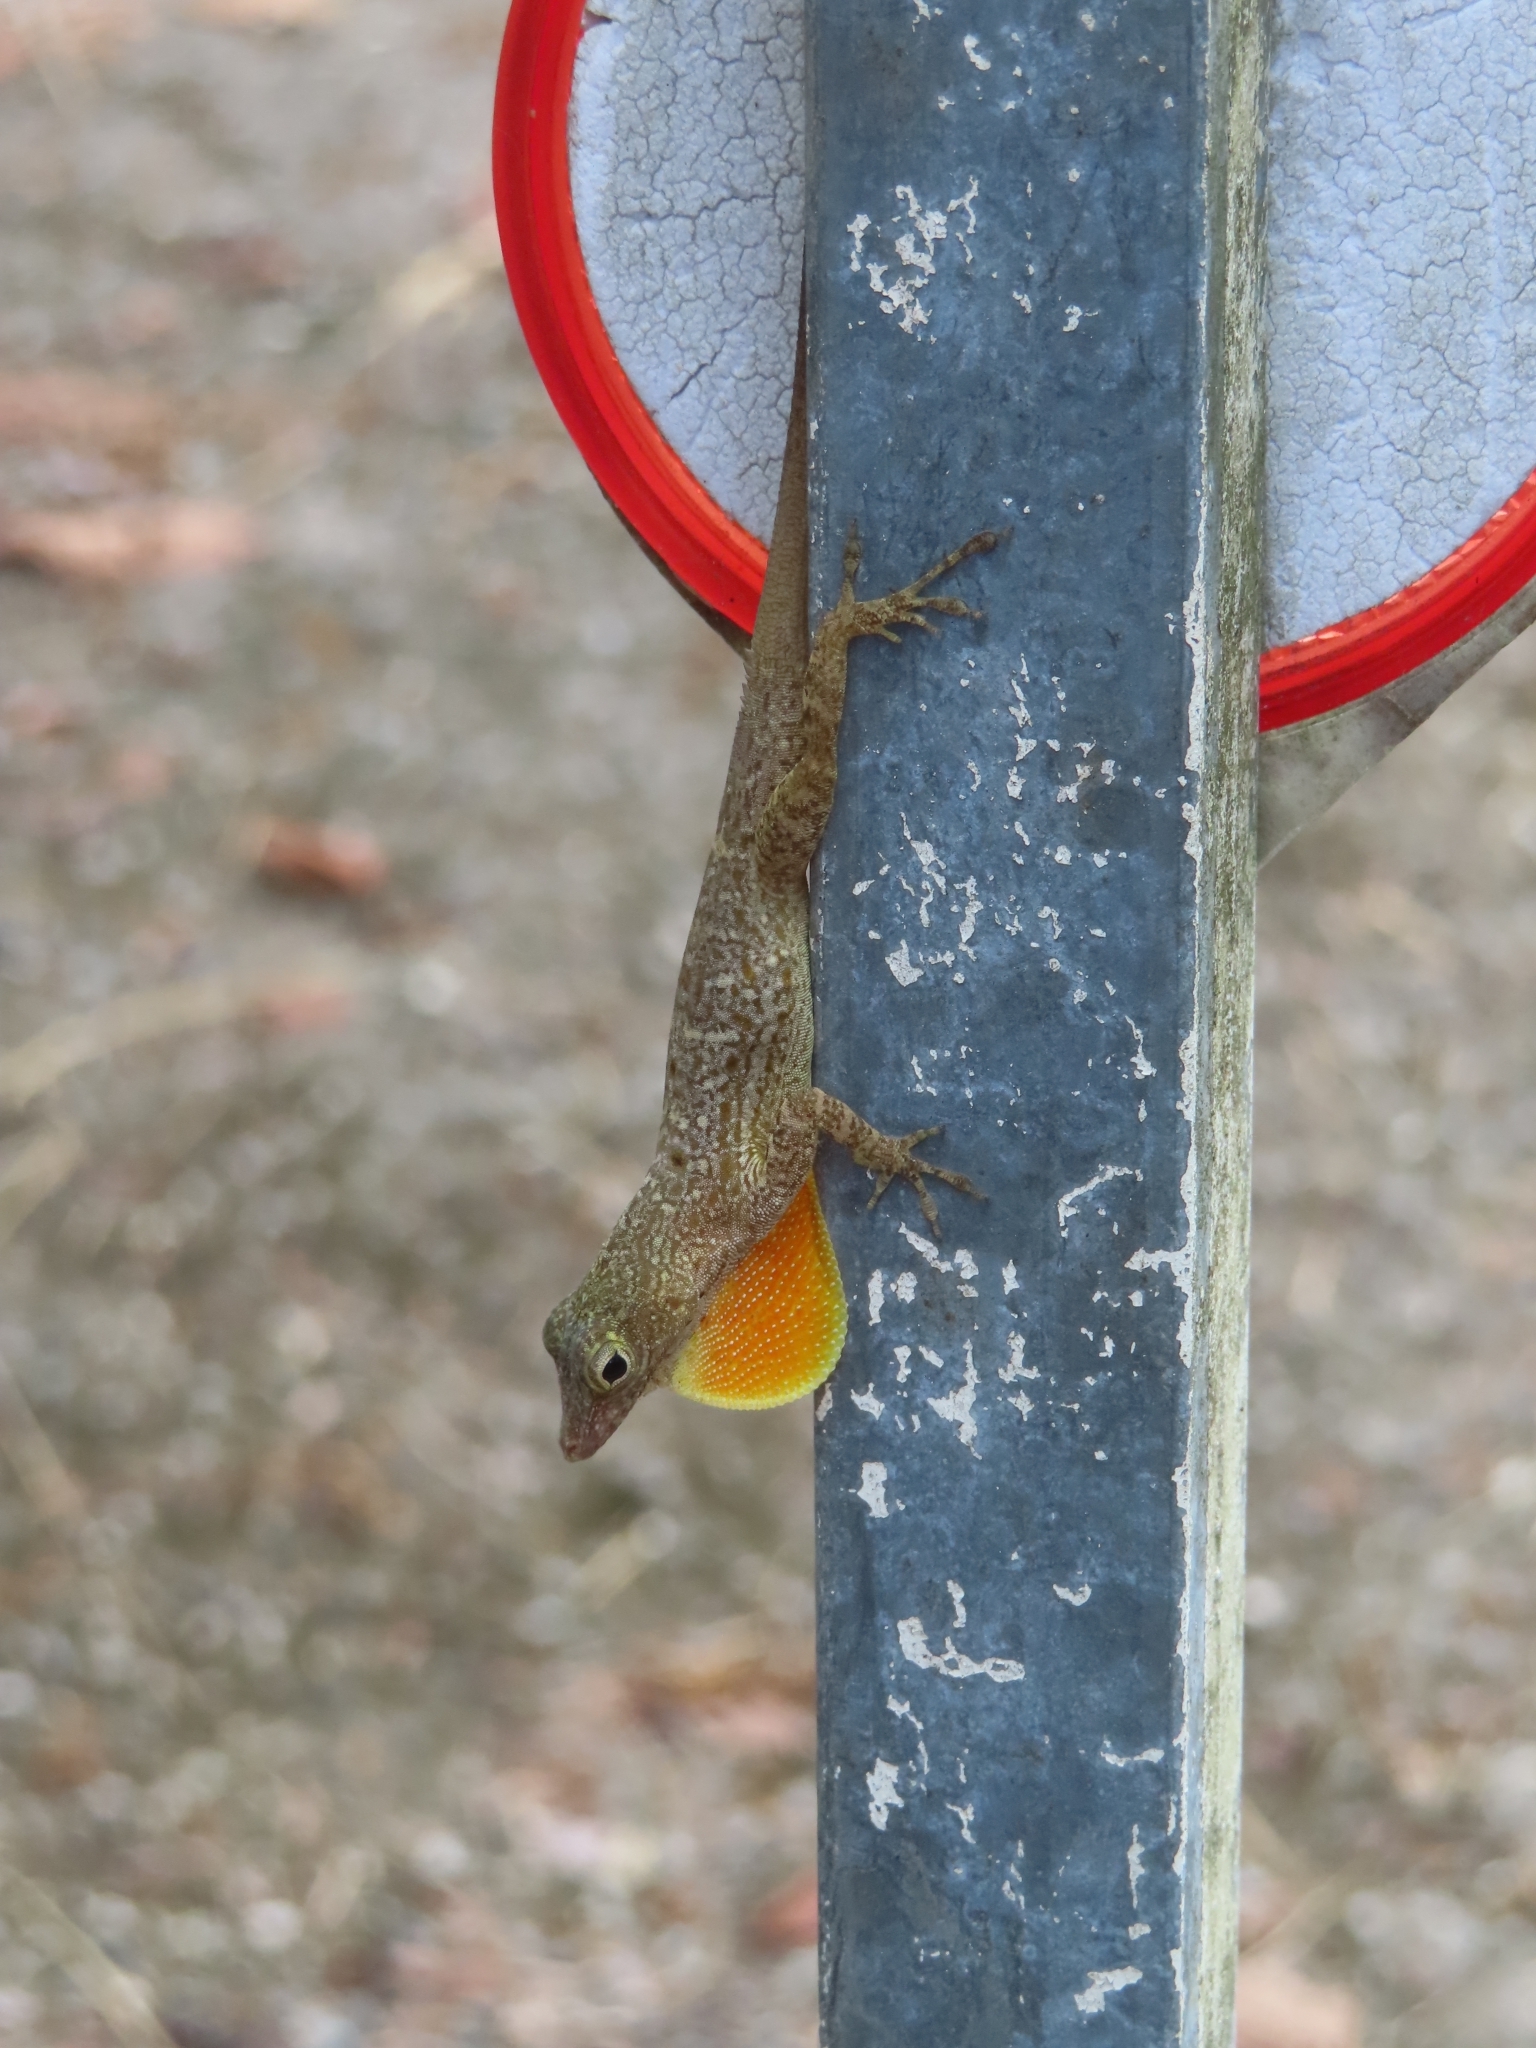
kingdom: Animalia
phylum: Chordata
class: Squamata
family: Dactyloidae
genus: Anolis
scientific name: Anolis stratulus
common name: Banded anole
